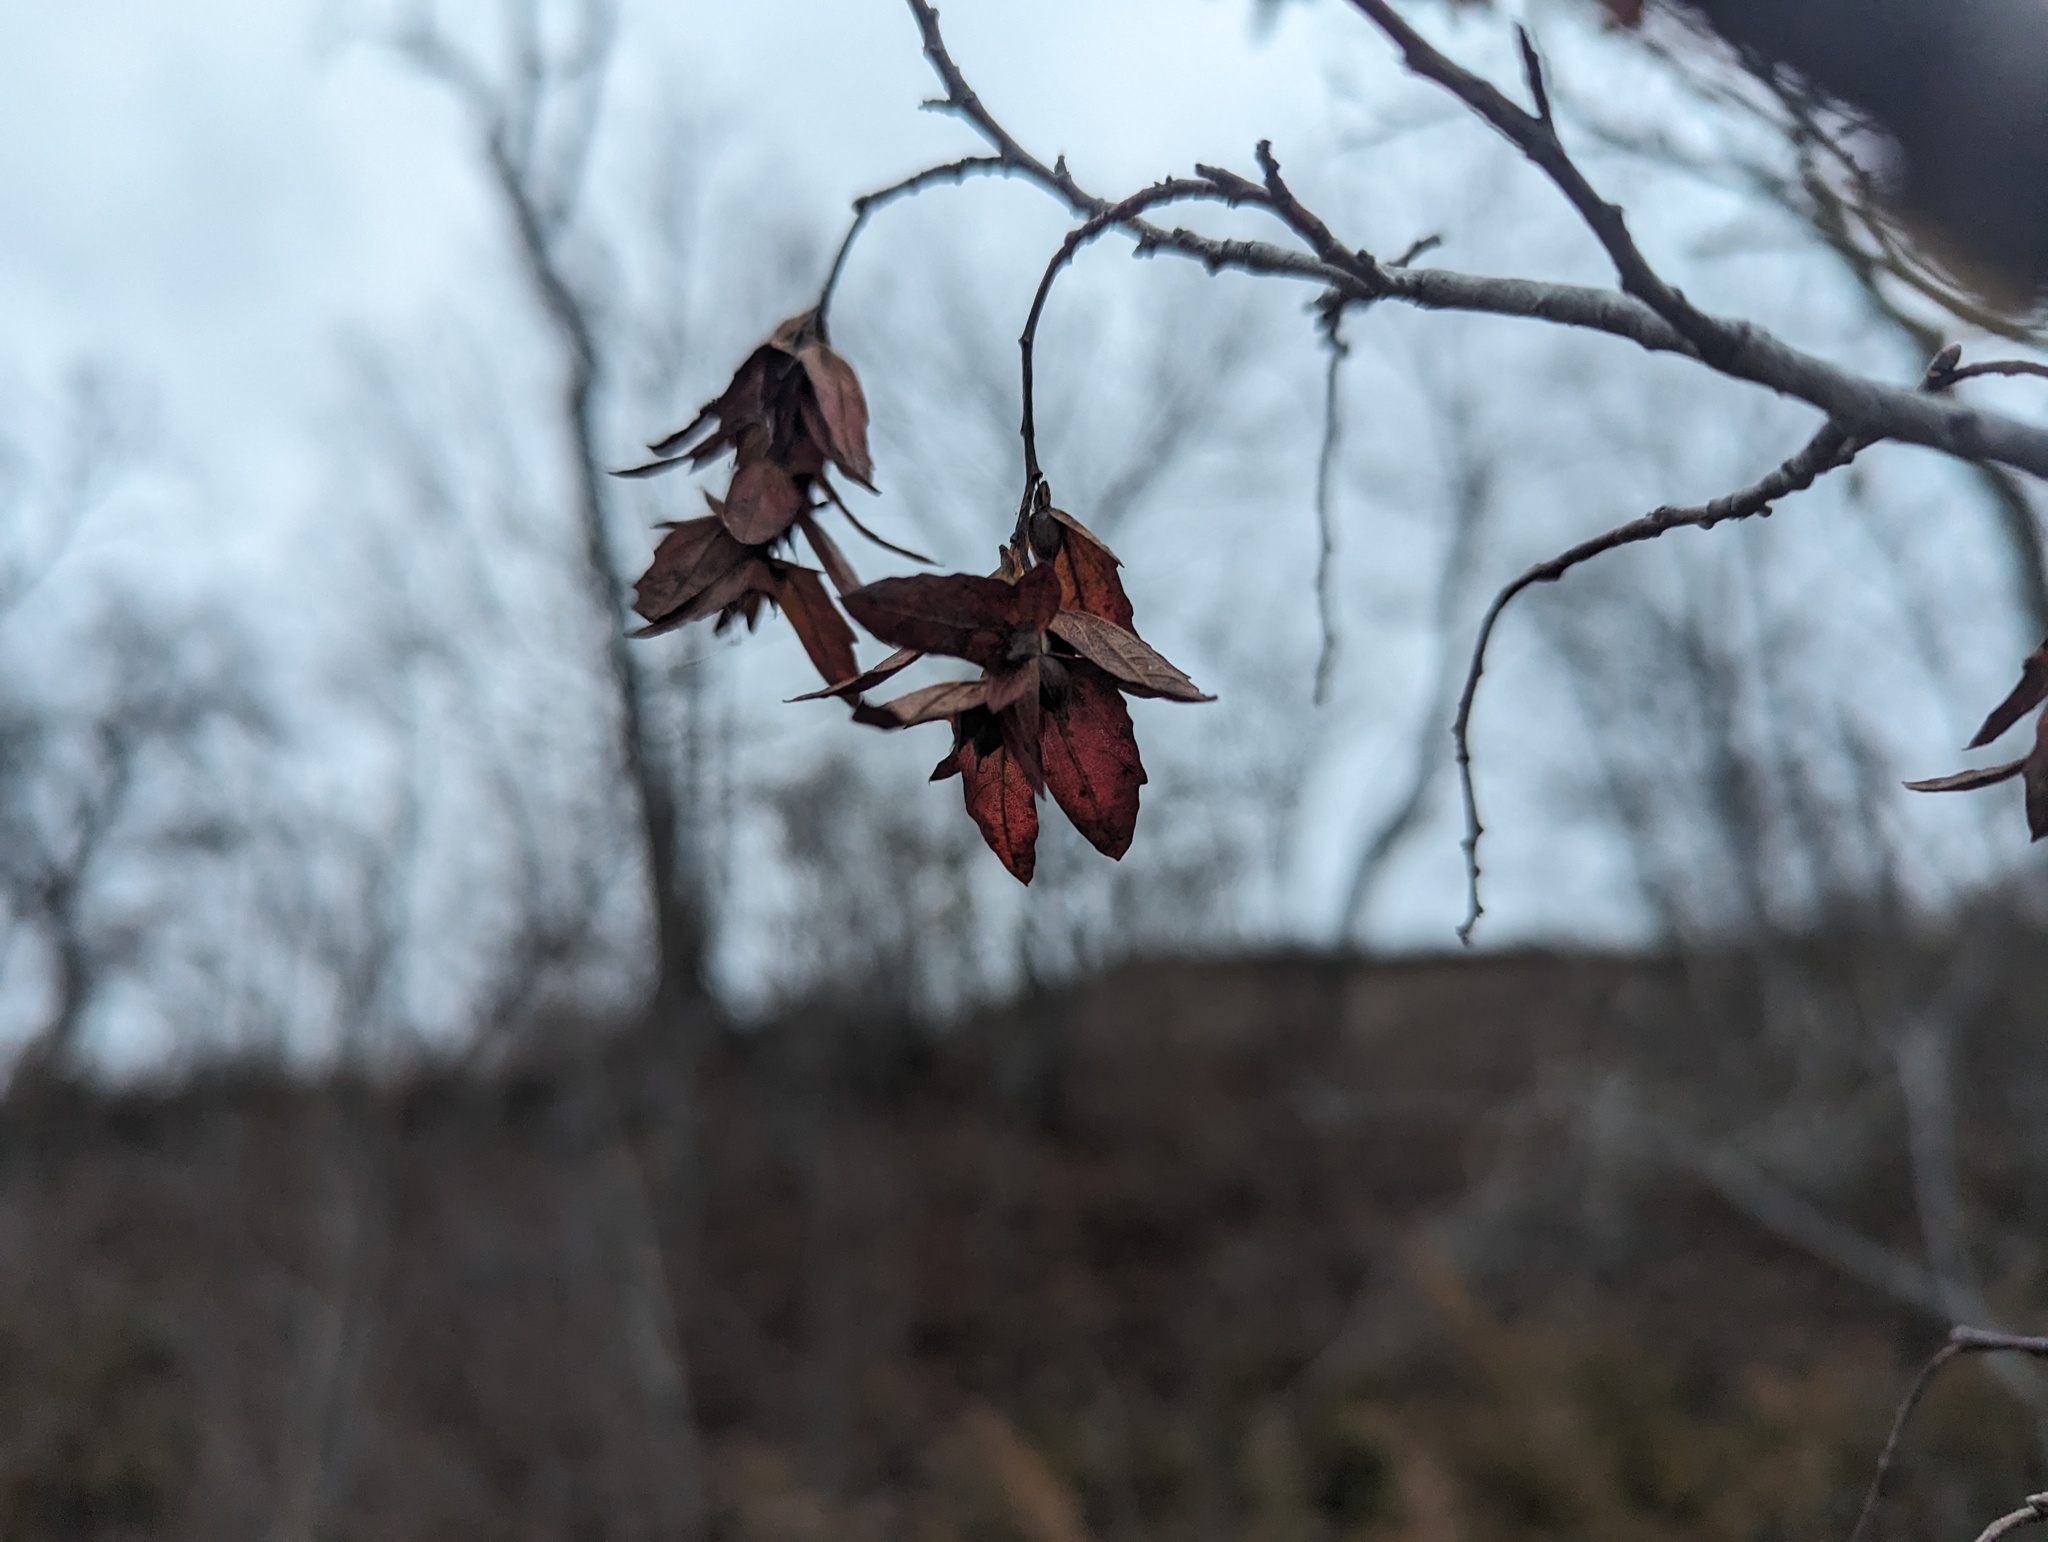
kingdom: Plantae
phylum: Tracheophyta
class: Magnoliopsida
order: Fagales
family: Betulaceae
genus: Carpinus
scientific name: Carpinus caroliniana
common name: American hornbeam
